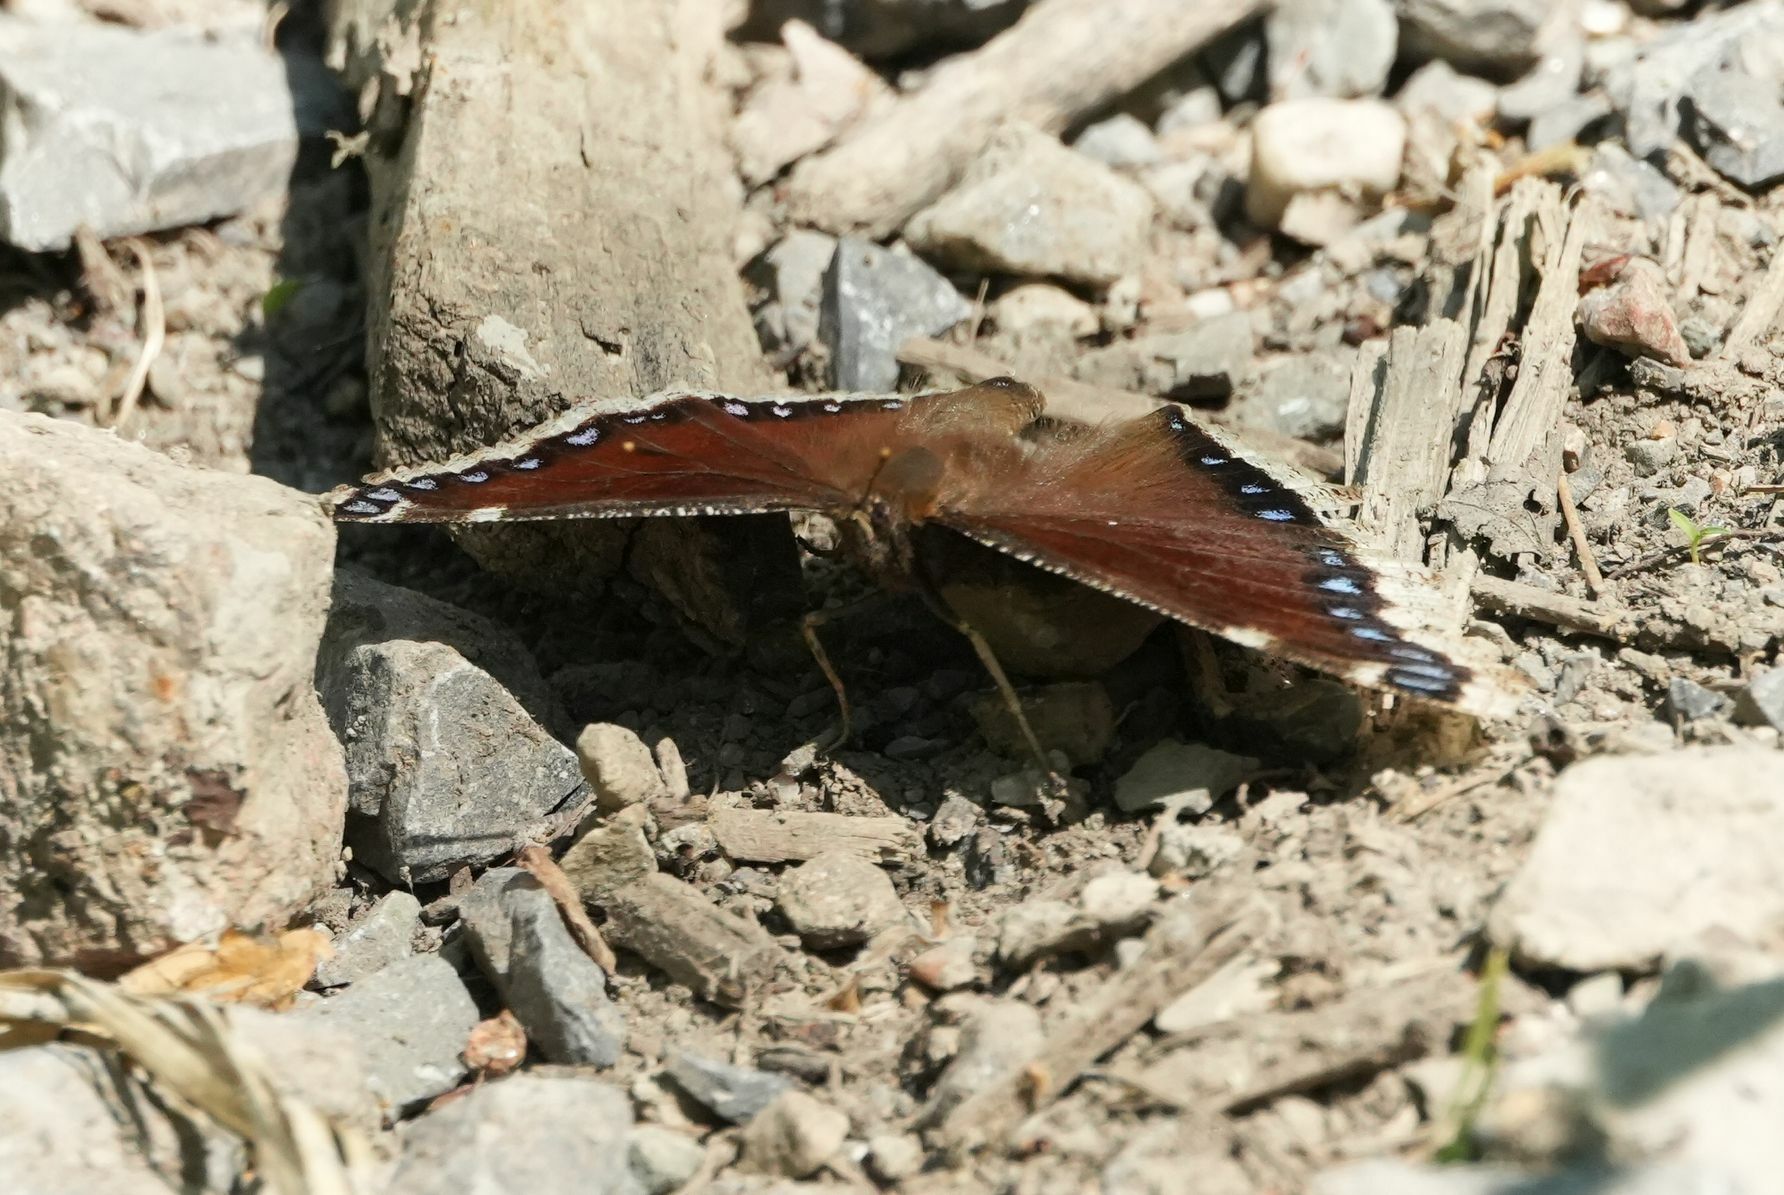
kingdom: Animalia
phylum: Arthropoda
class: Insecta
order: Lepidoptera
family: Nymphalidae
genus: Nymphalis
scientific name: Nymphalis antiopa
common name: Camberwell beauty
